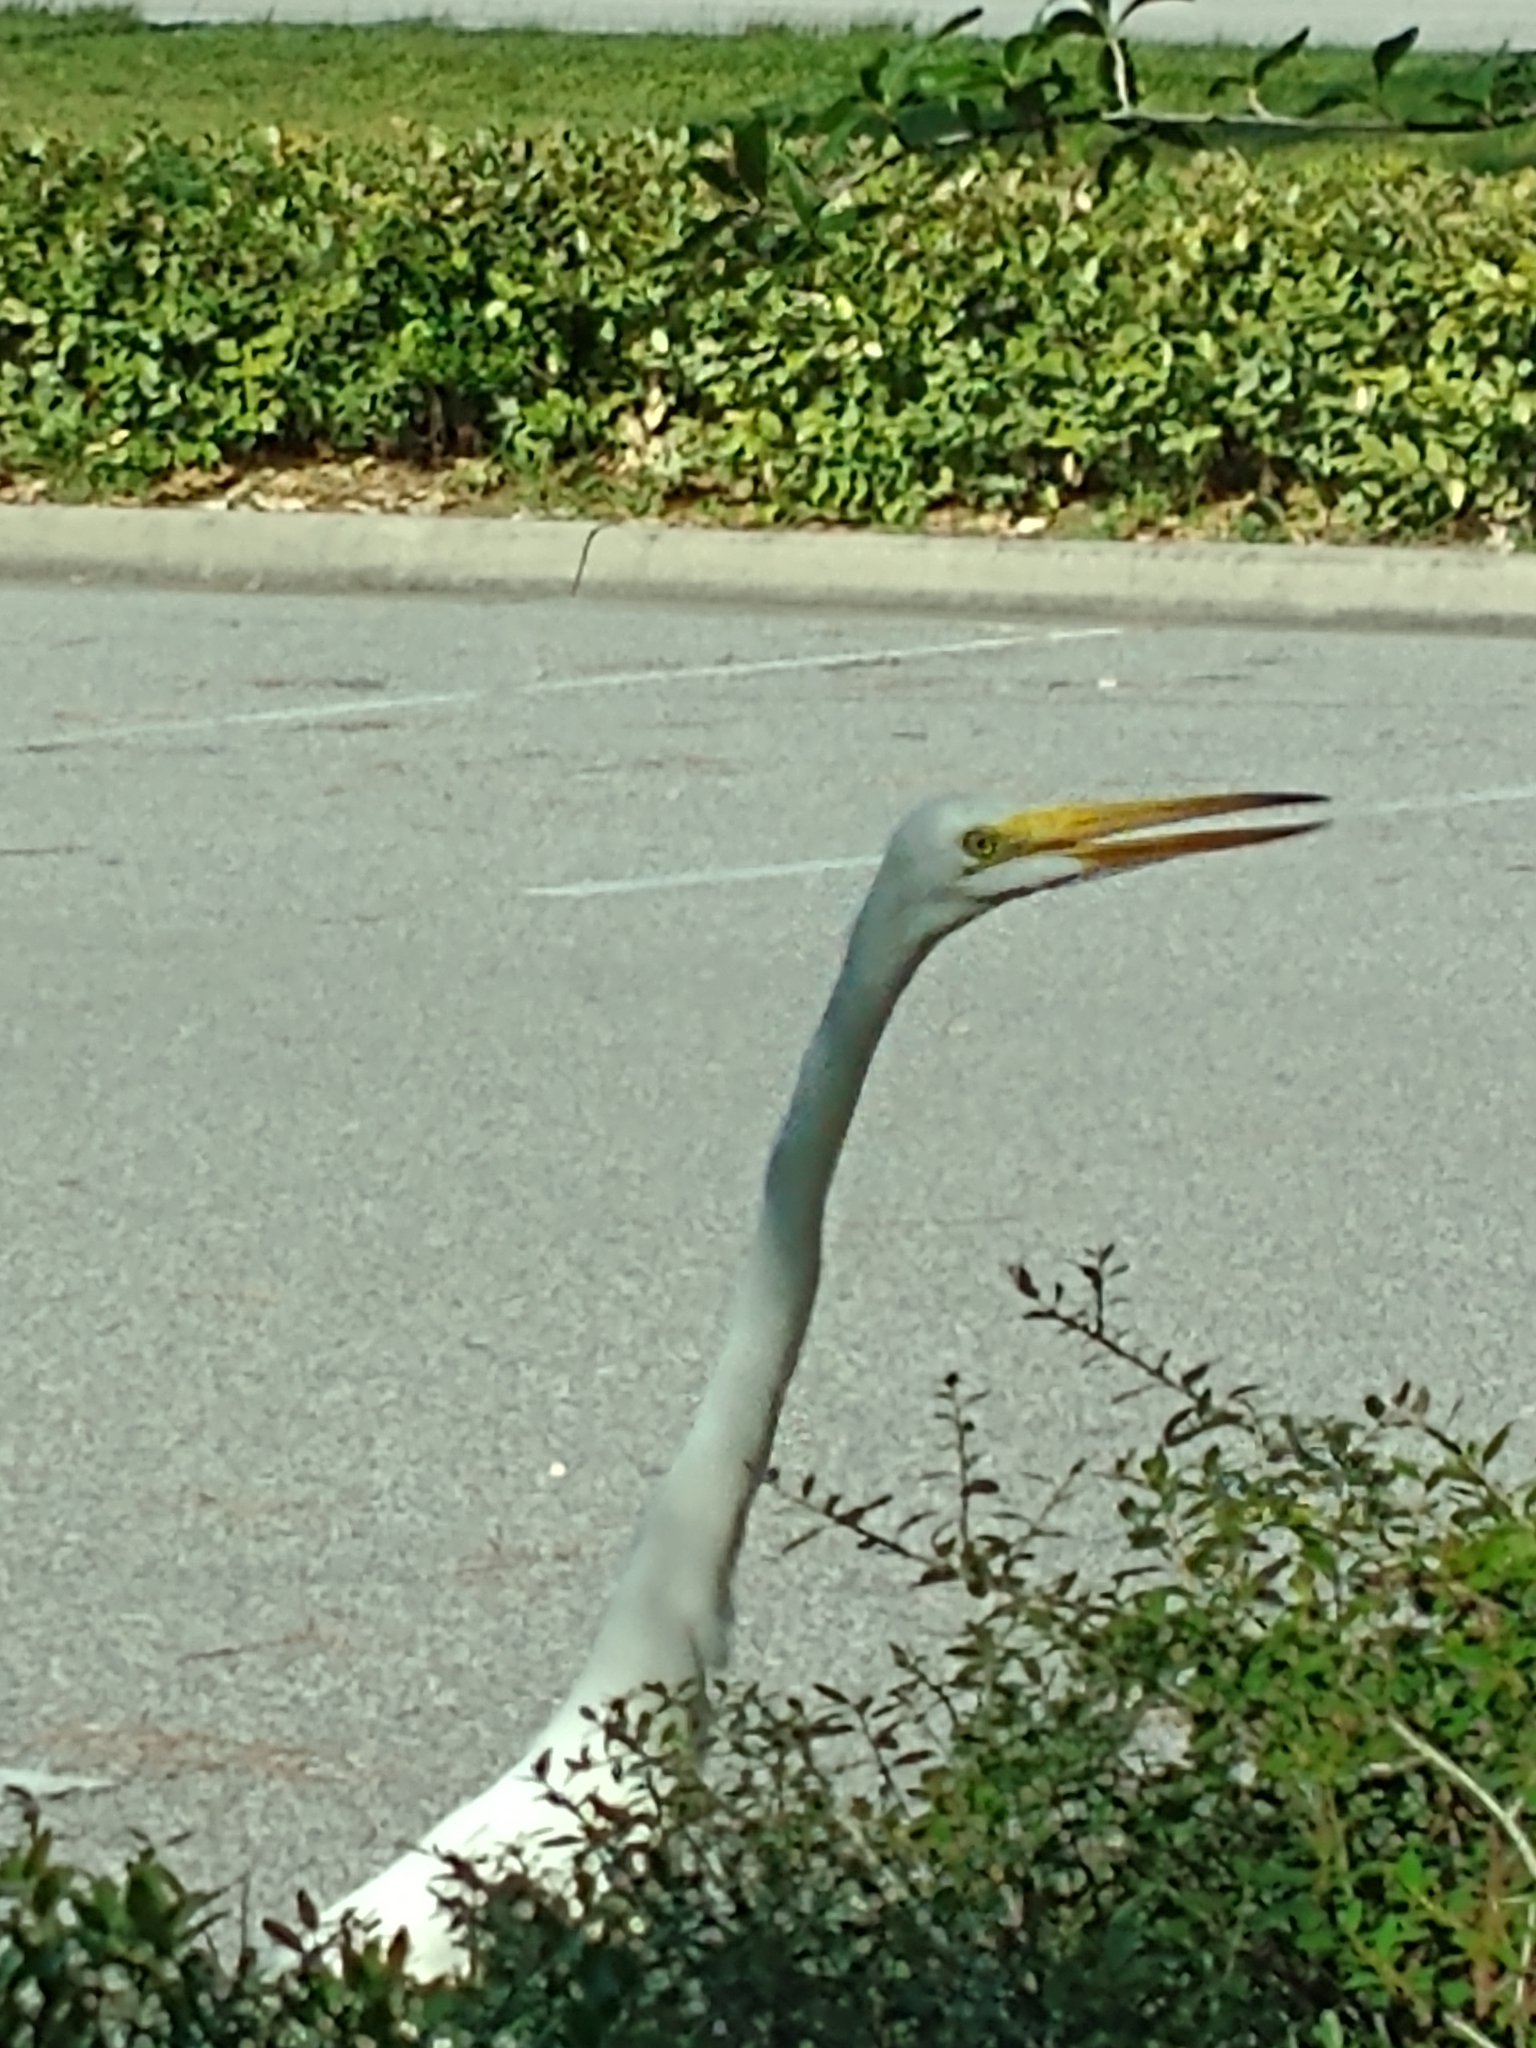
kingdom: Animalia
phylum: Chordata
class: Aves
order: Pelecaniformes
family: Ardeidae
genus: Ardea
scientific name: Ardea alba
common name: Great egret
